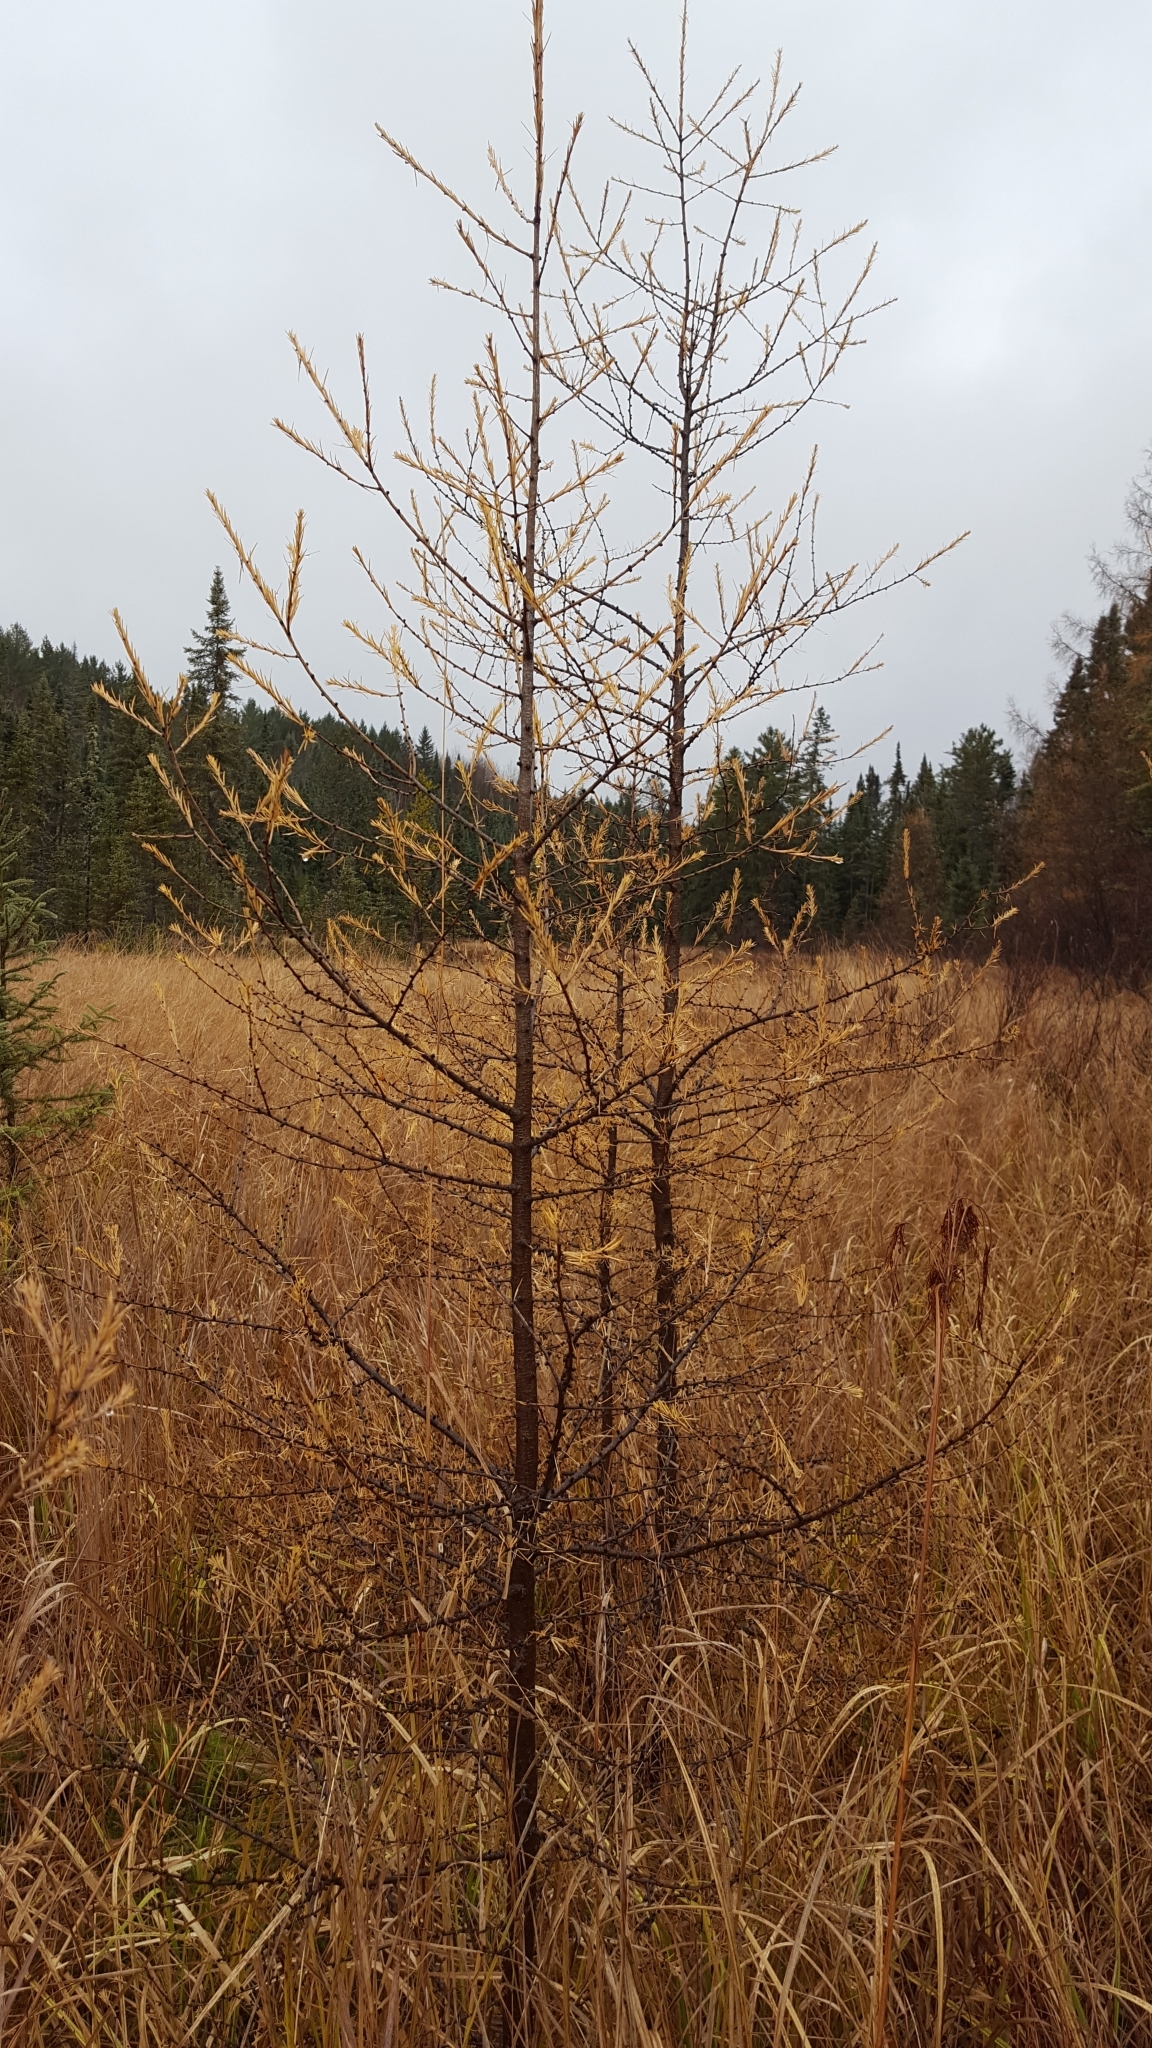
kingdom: Plantae
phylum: Tracheophyta
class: Pinopsida
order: Pinales
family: Pinaceae
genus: Larix
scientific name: Larix laricina
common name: American larch
